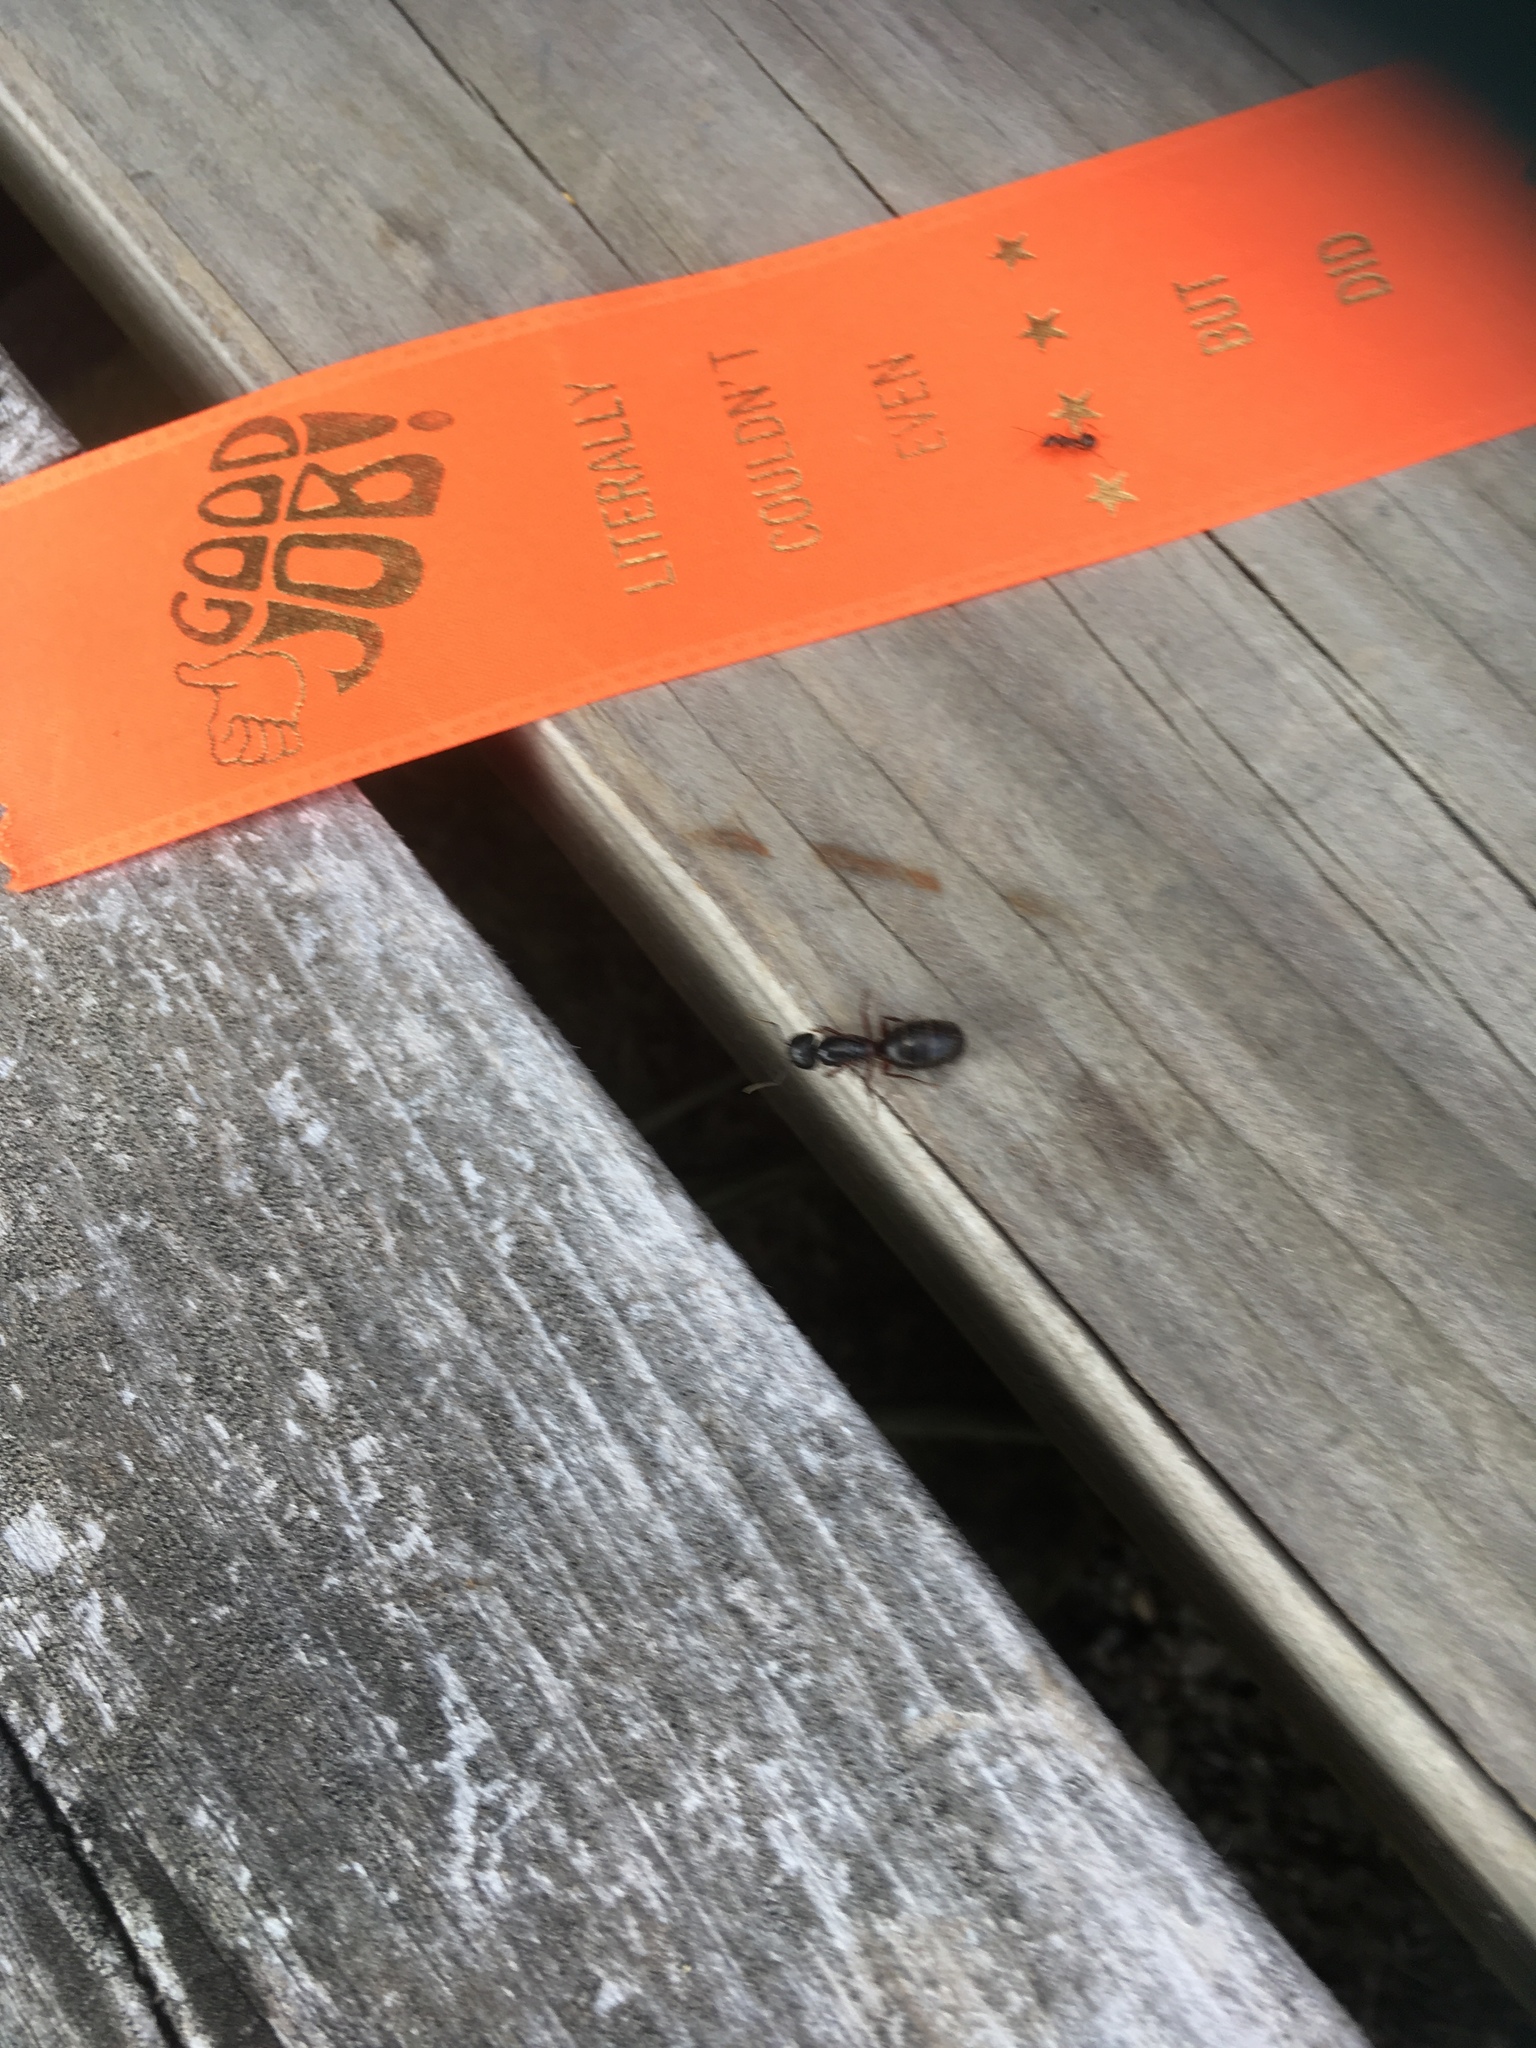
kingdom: Animalia
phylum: Arthropoda
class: Insecta
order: Hymenoptera
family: Formicidae
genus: Camponotus
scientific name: Camponotus herculeanus
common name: Hercules ant
